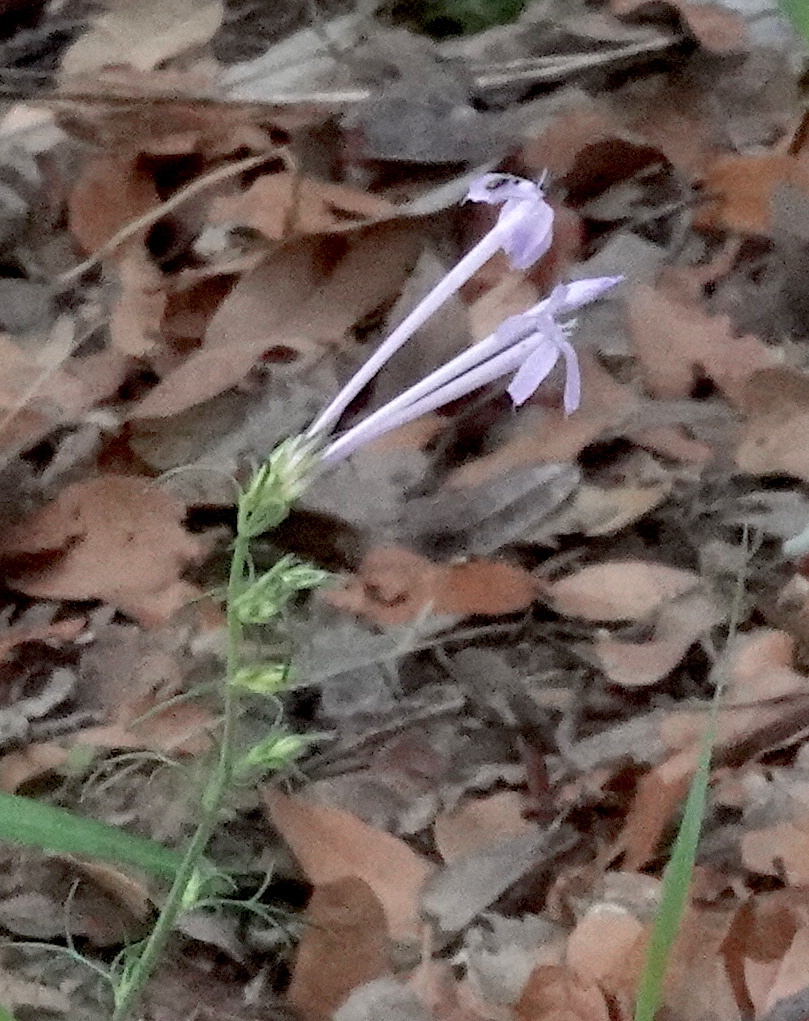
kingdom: Plantae
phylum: Tracheophyta
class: Magnoliopsida
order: Ericales
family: Polemoniaceae
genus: Ipomopsis
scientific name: Ipomopsis thurberi
